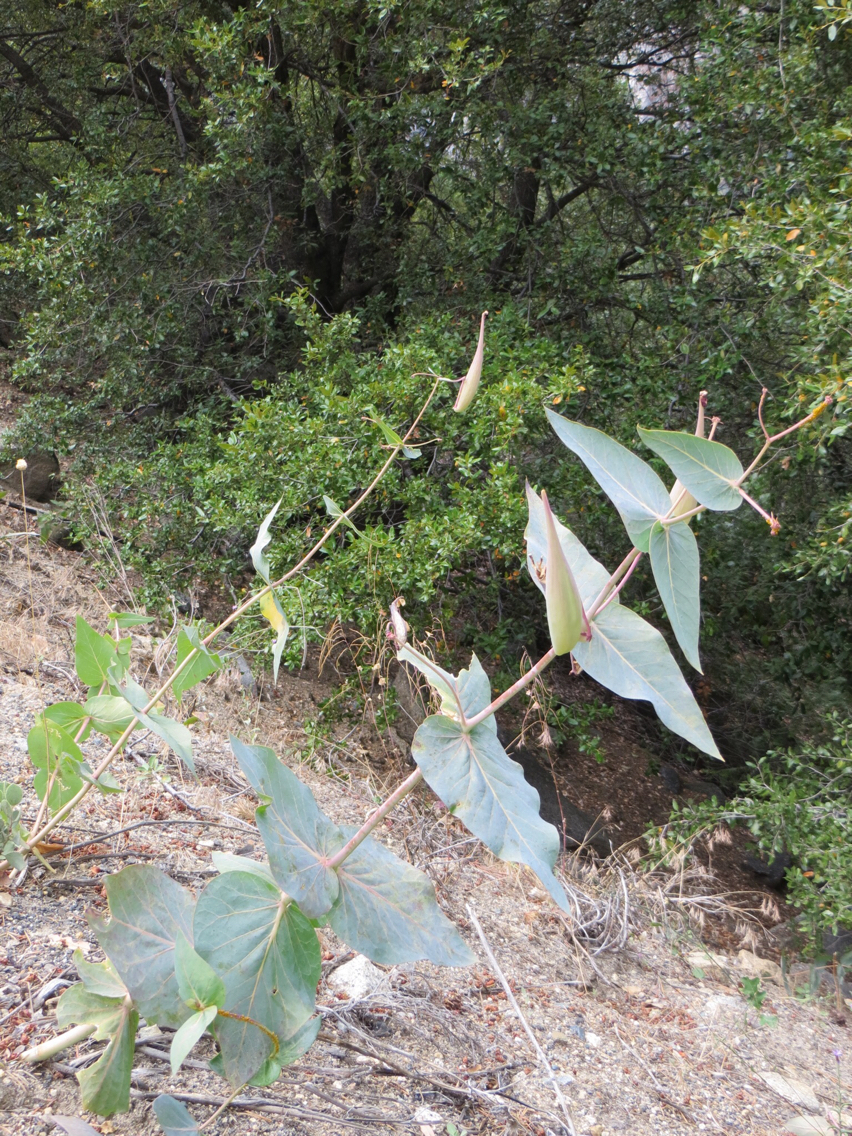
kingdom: Plantae
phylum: Tracheophyta
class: Magnoliopsida
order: Gentianales
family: Apocynaceae
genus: Asclepias
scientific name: Asclepias cordifolia
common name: Purple milkweed
